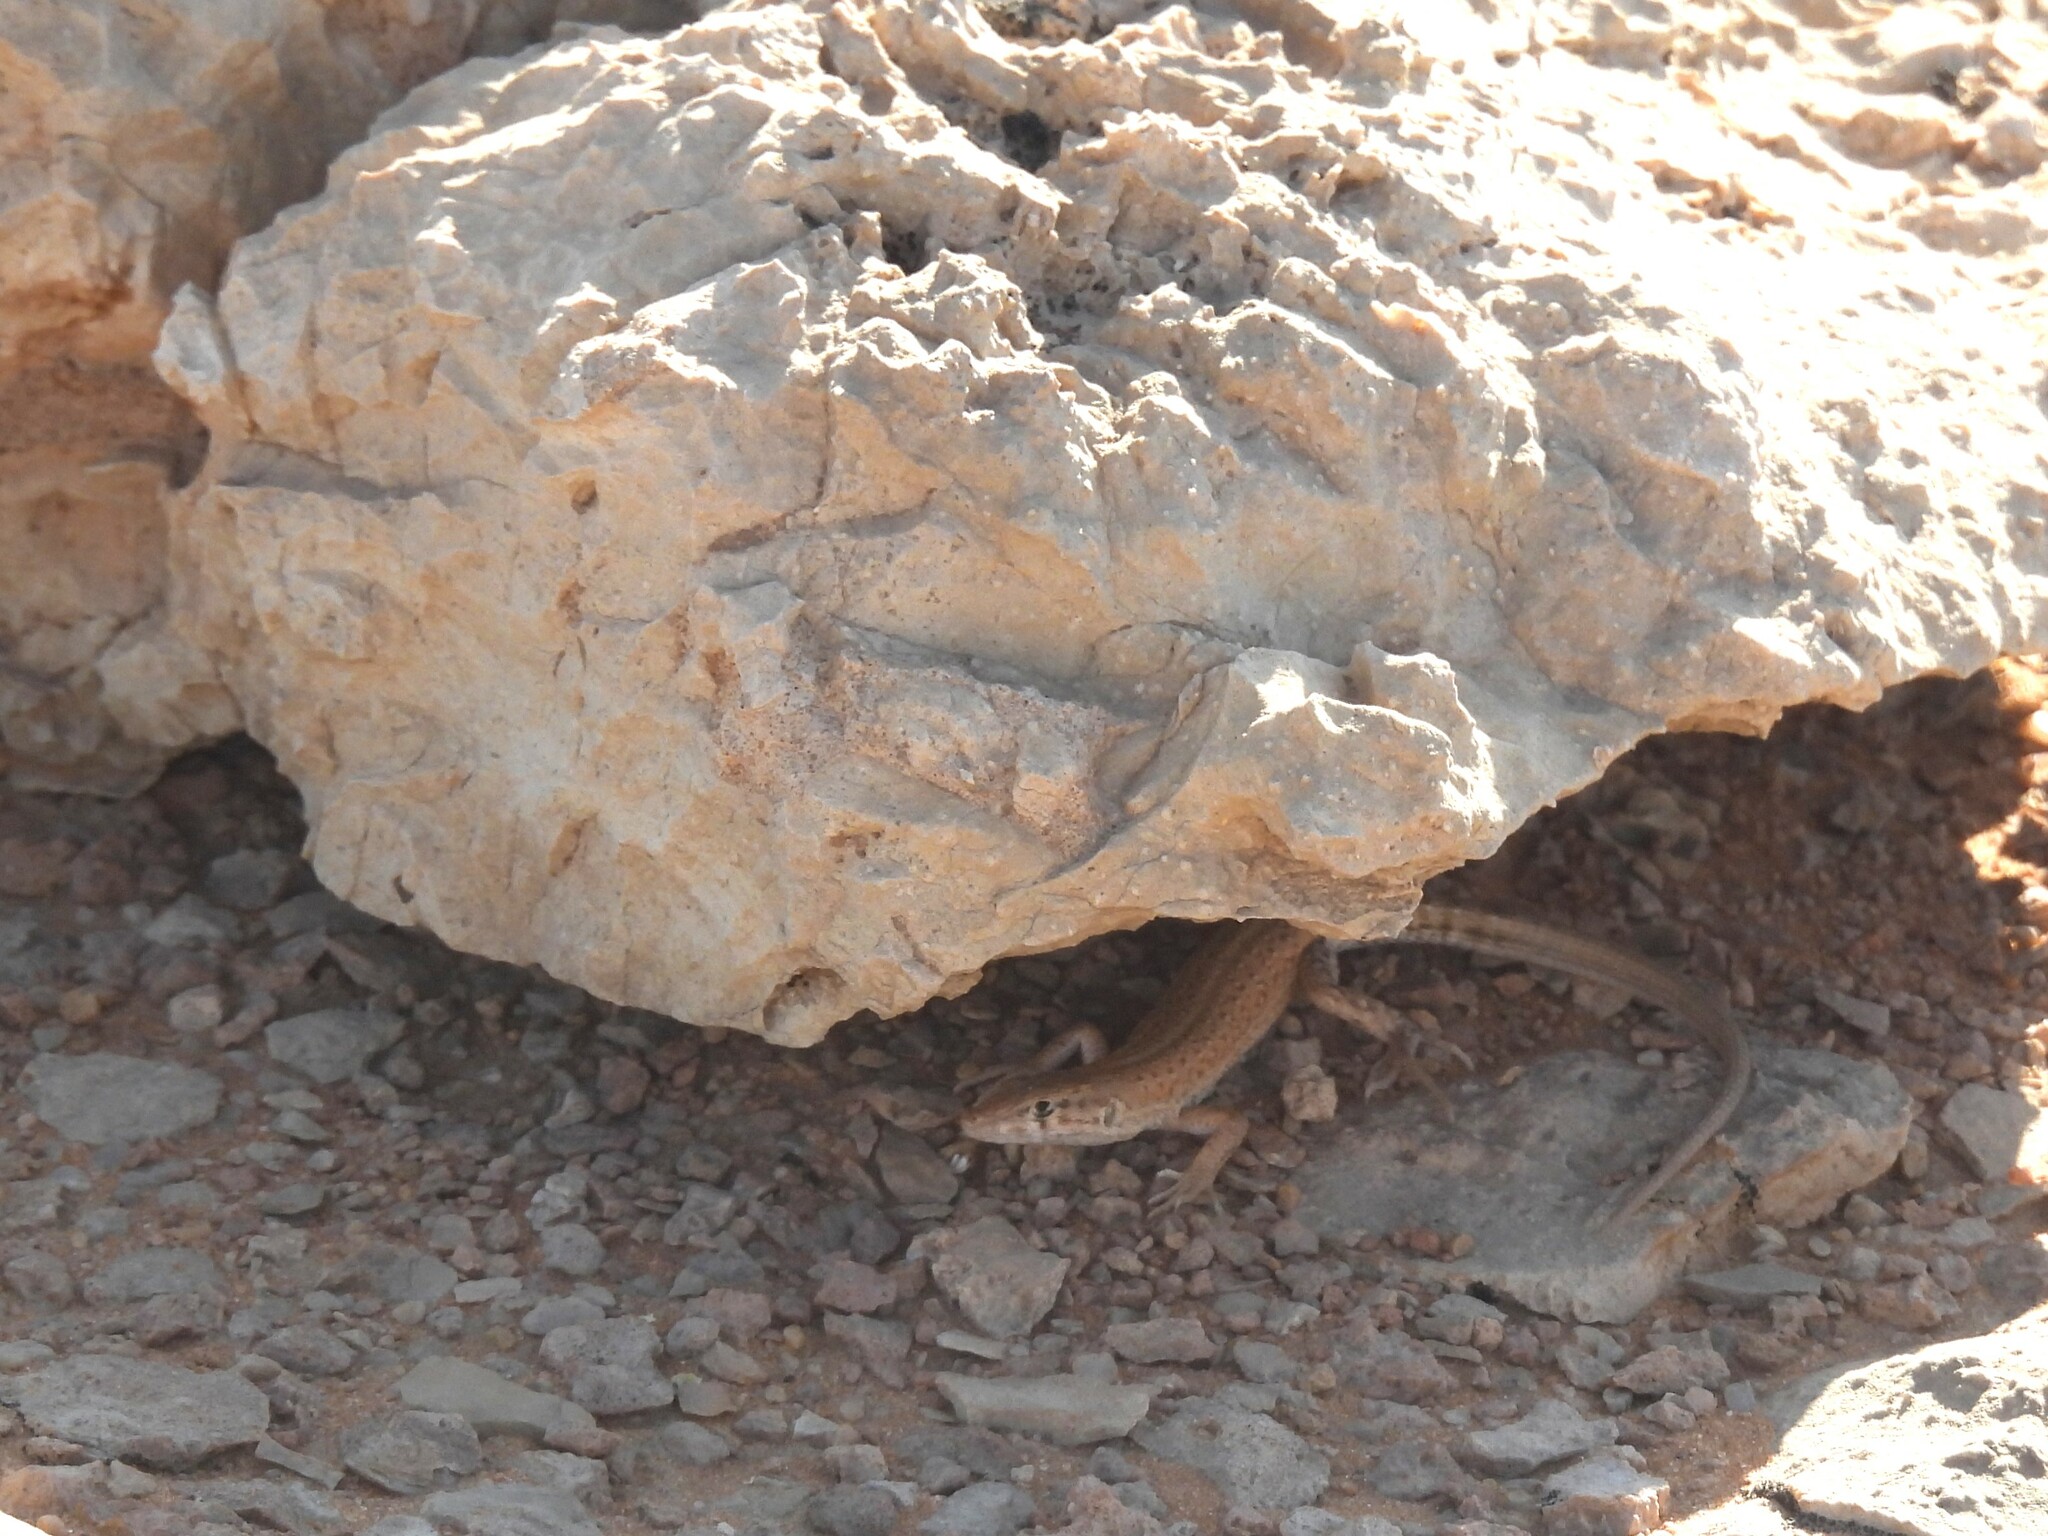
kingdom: Animalia
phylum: Chordata
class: Squamata
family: Lacertidae
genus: Mesalina
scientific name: Mesalina guttulata
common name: Desert lacerta
